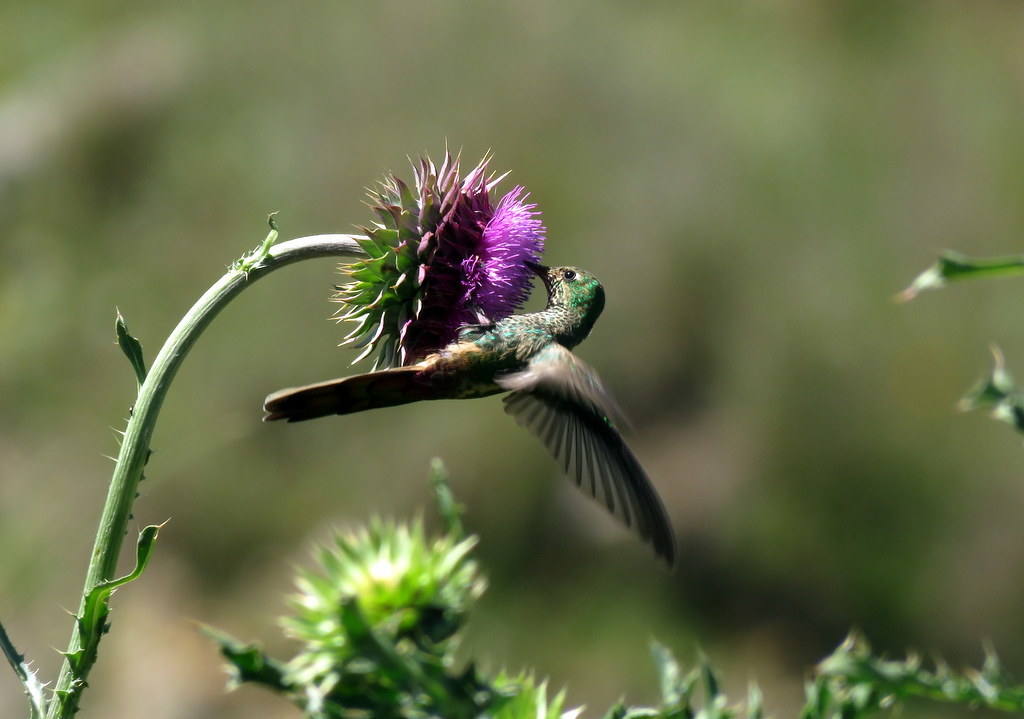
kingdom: Animalia
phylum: Chordata
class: Aves
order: Apodiformes
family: Trochilidae
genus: Sappho
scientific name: Sappho sparganurus
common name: Red-tailed comet
